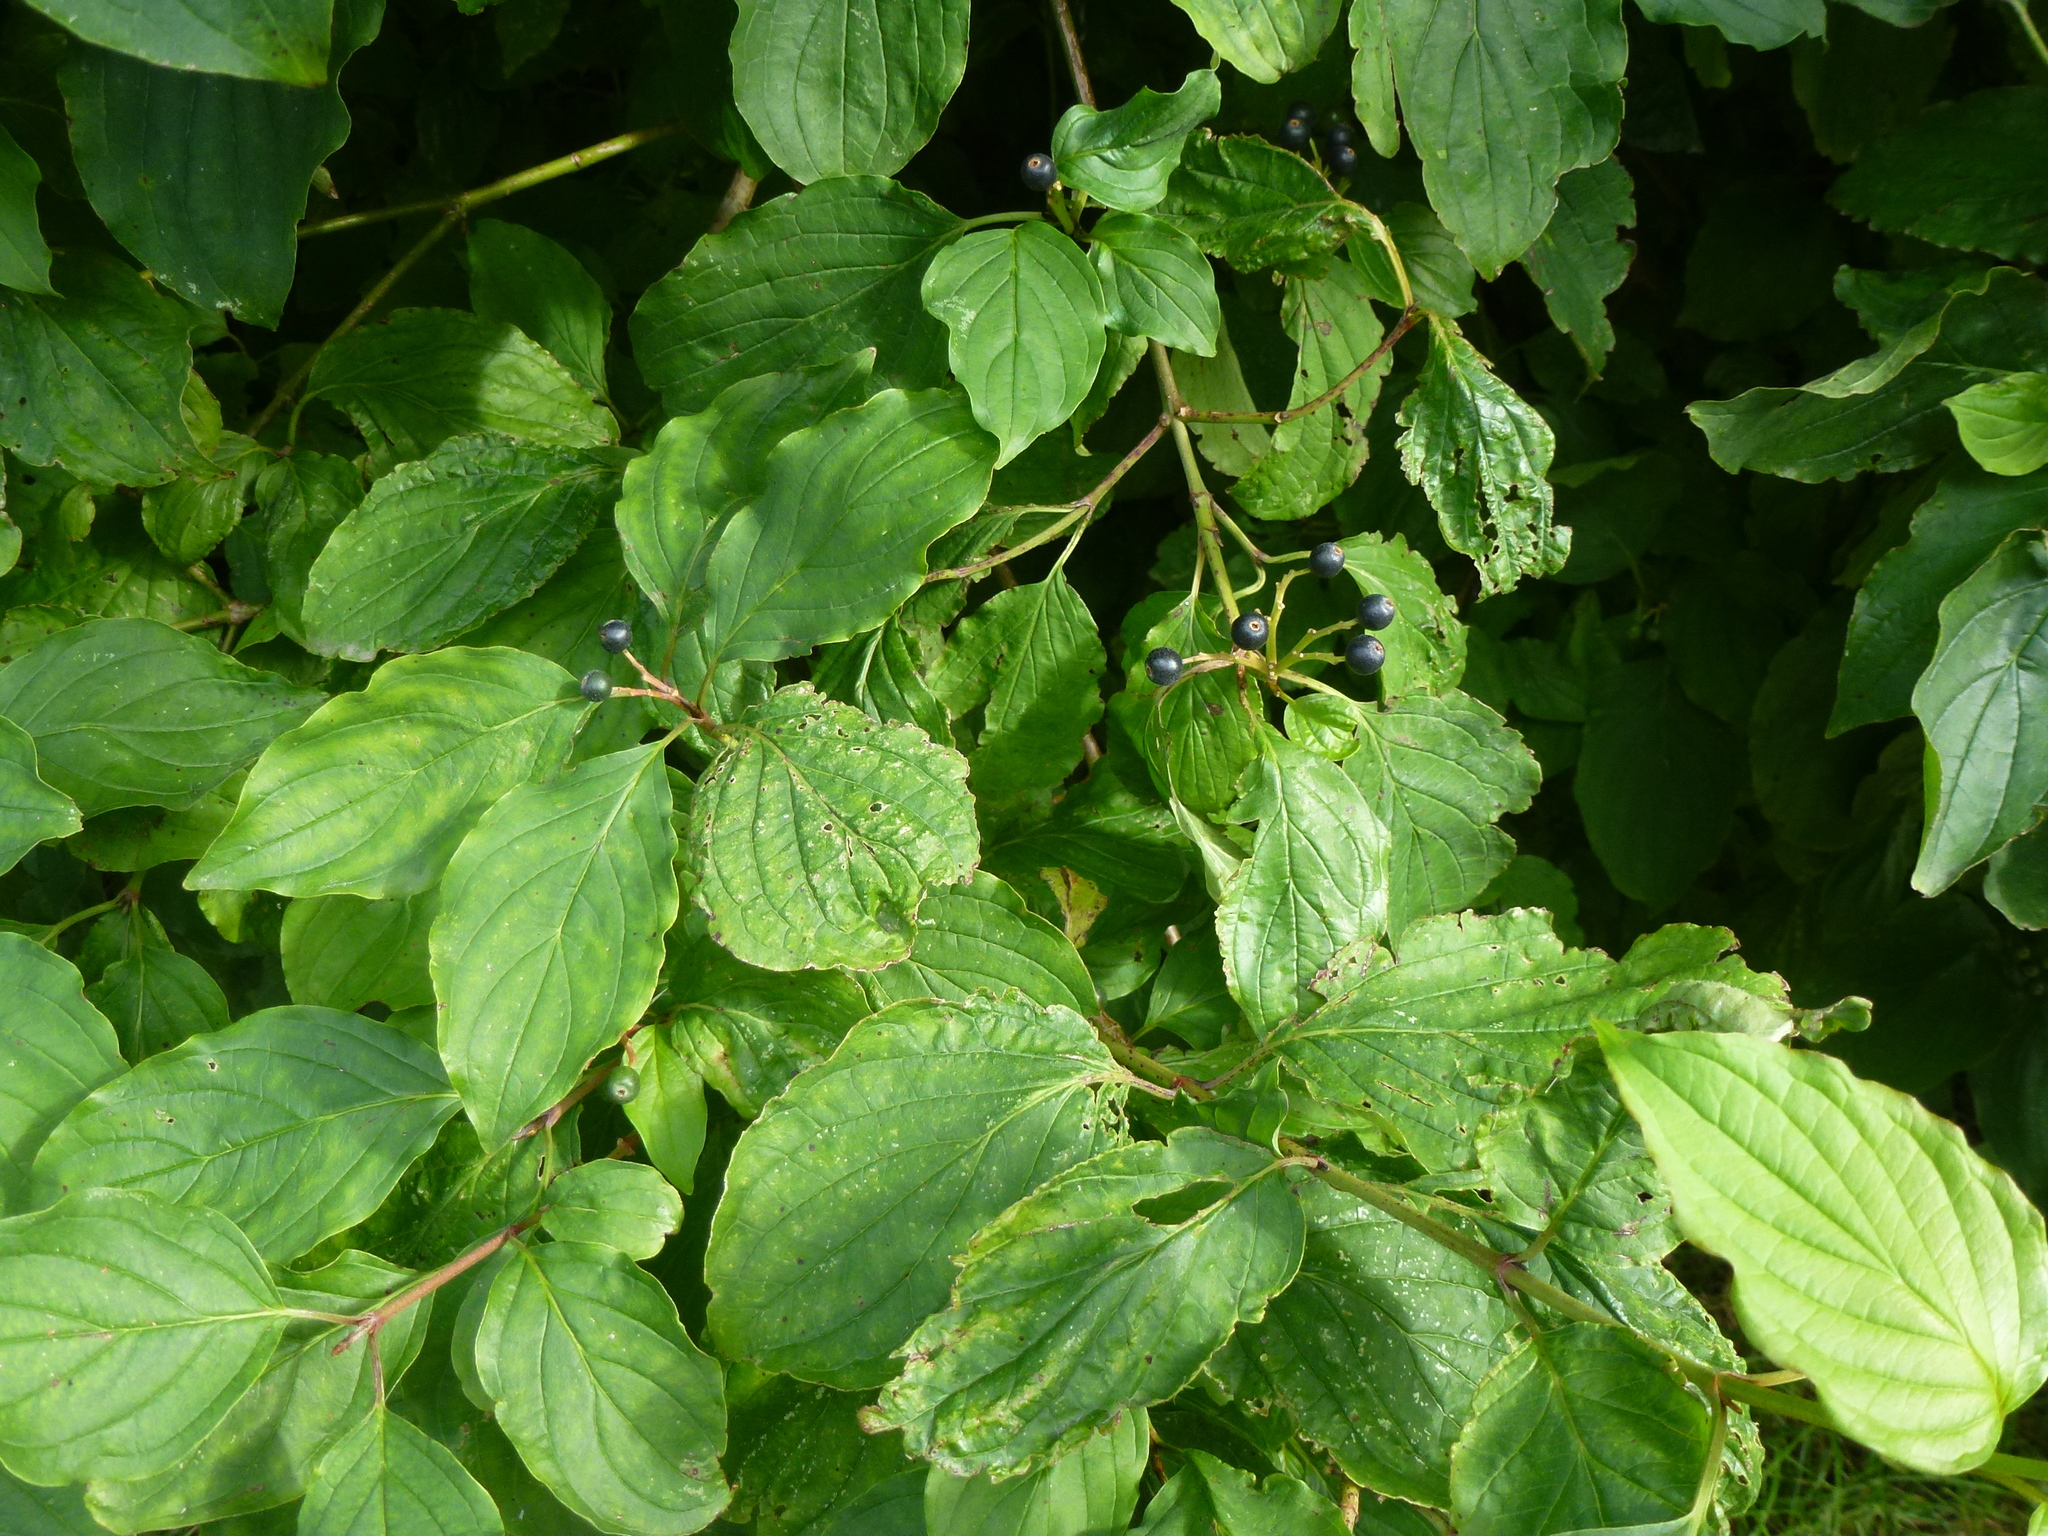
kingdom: Plantae
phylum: Tracheophyta
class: Magnoliopsida
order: Cornales
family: Cornaceae
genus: Cornus
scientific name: Cornus sanguinea
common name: Dogwood
